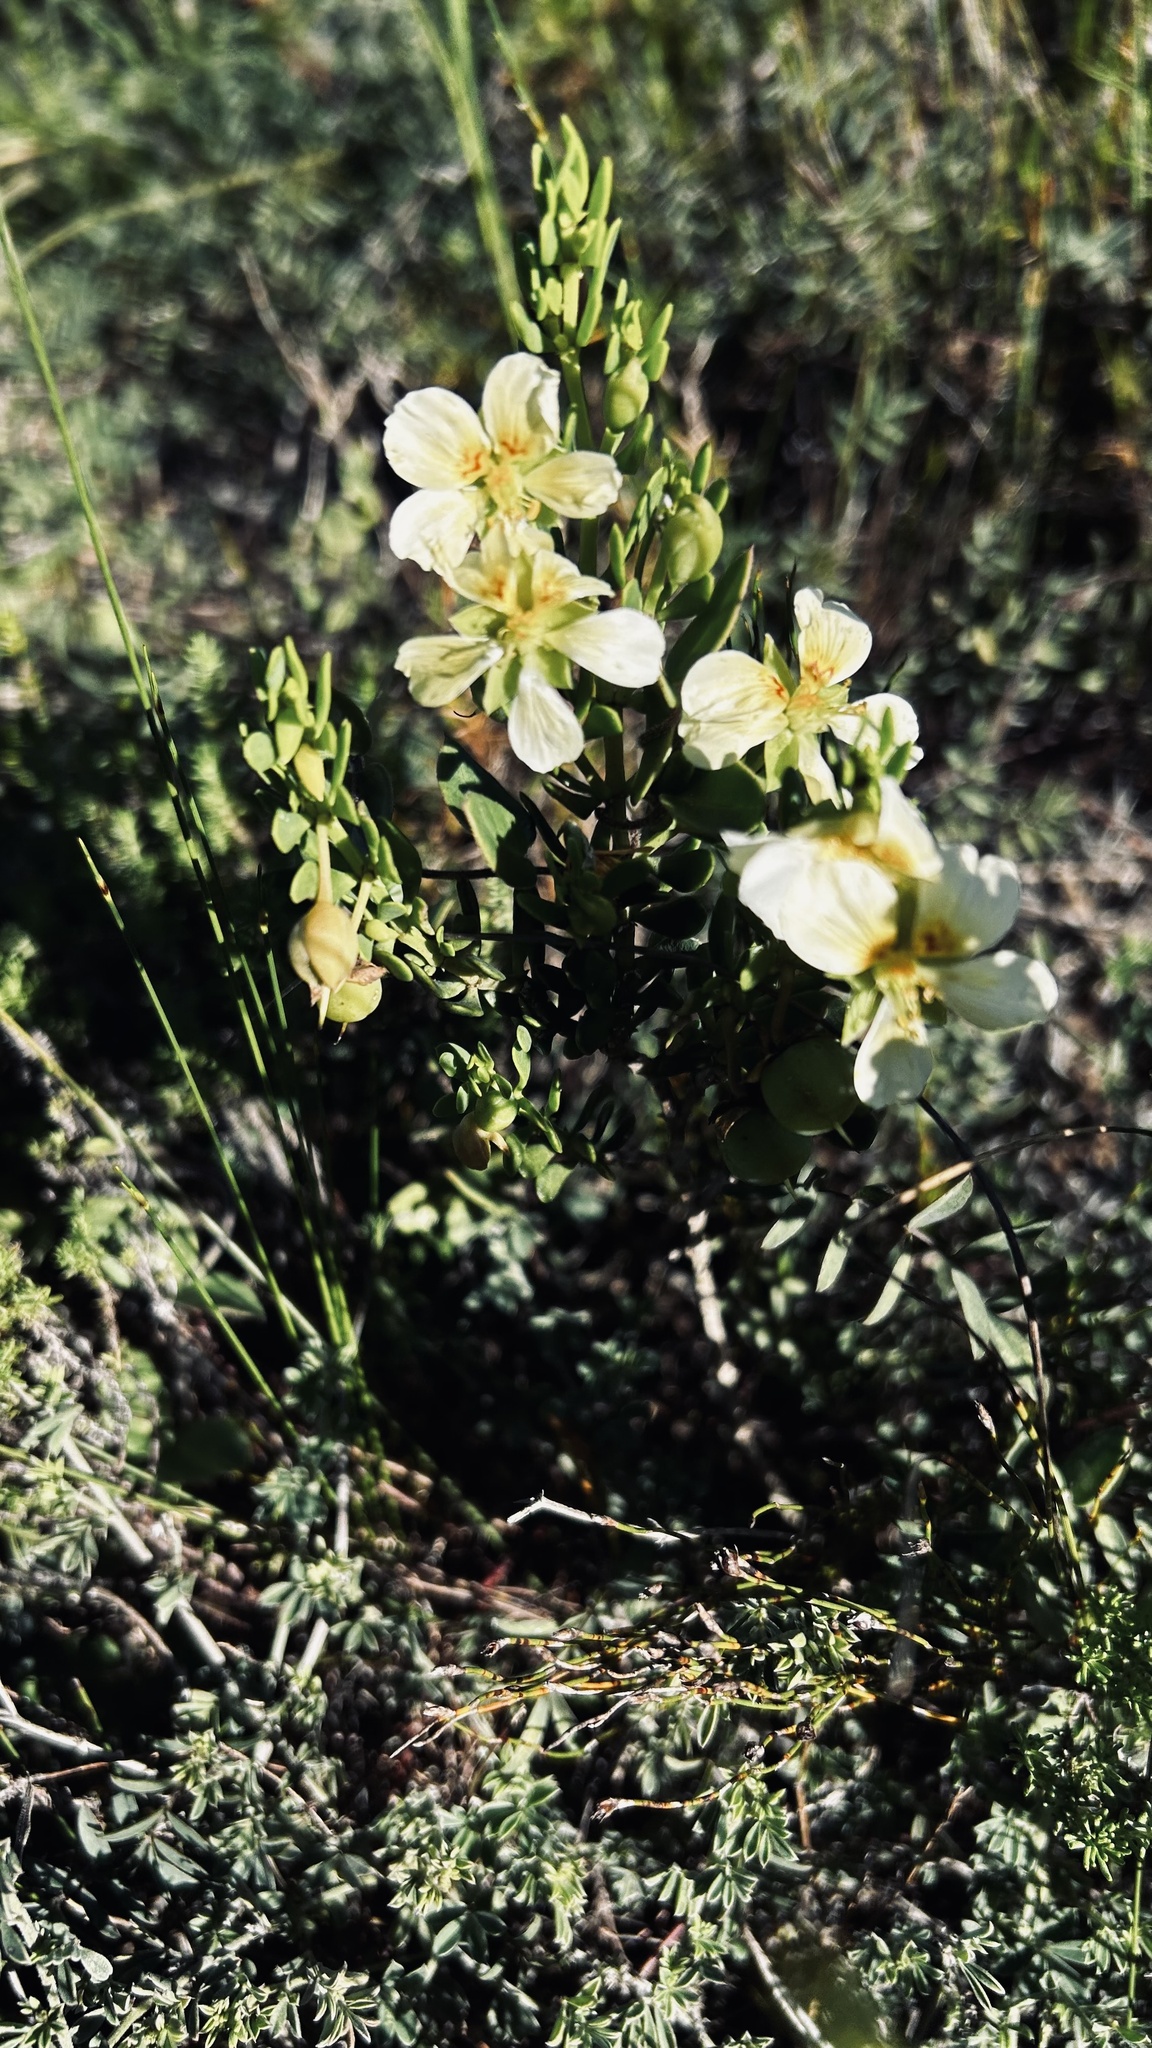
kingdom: Plantae
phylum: Tracheophyta
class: Magnoliopsida
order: Zygophyllales
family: Zygophyllaceae
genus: Roepera
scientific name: Roepera fulva
